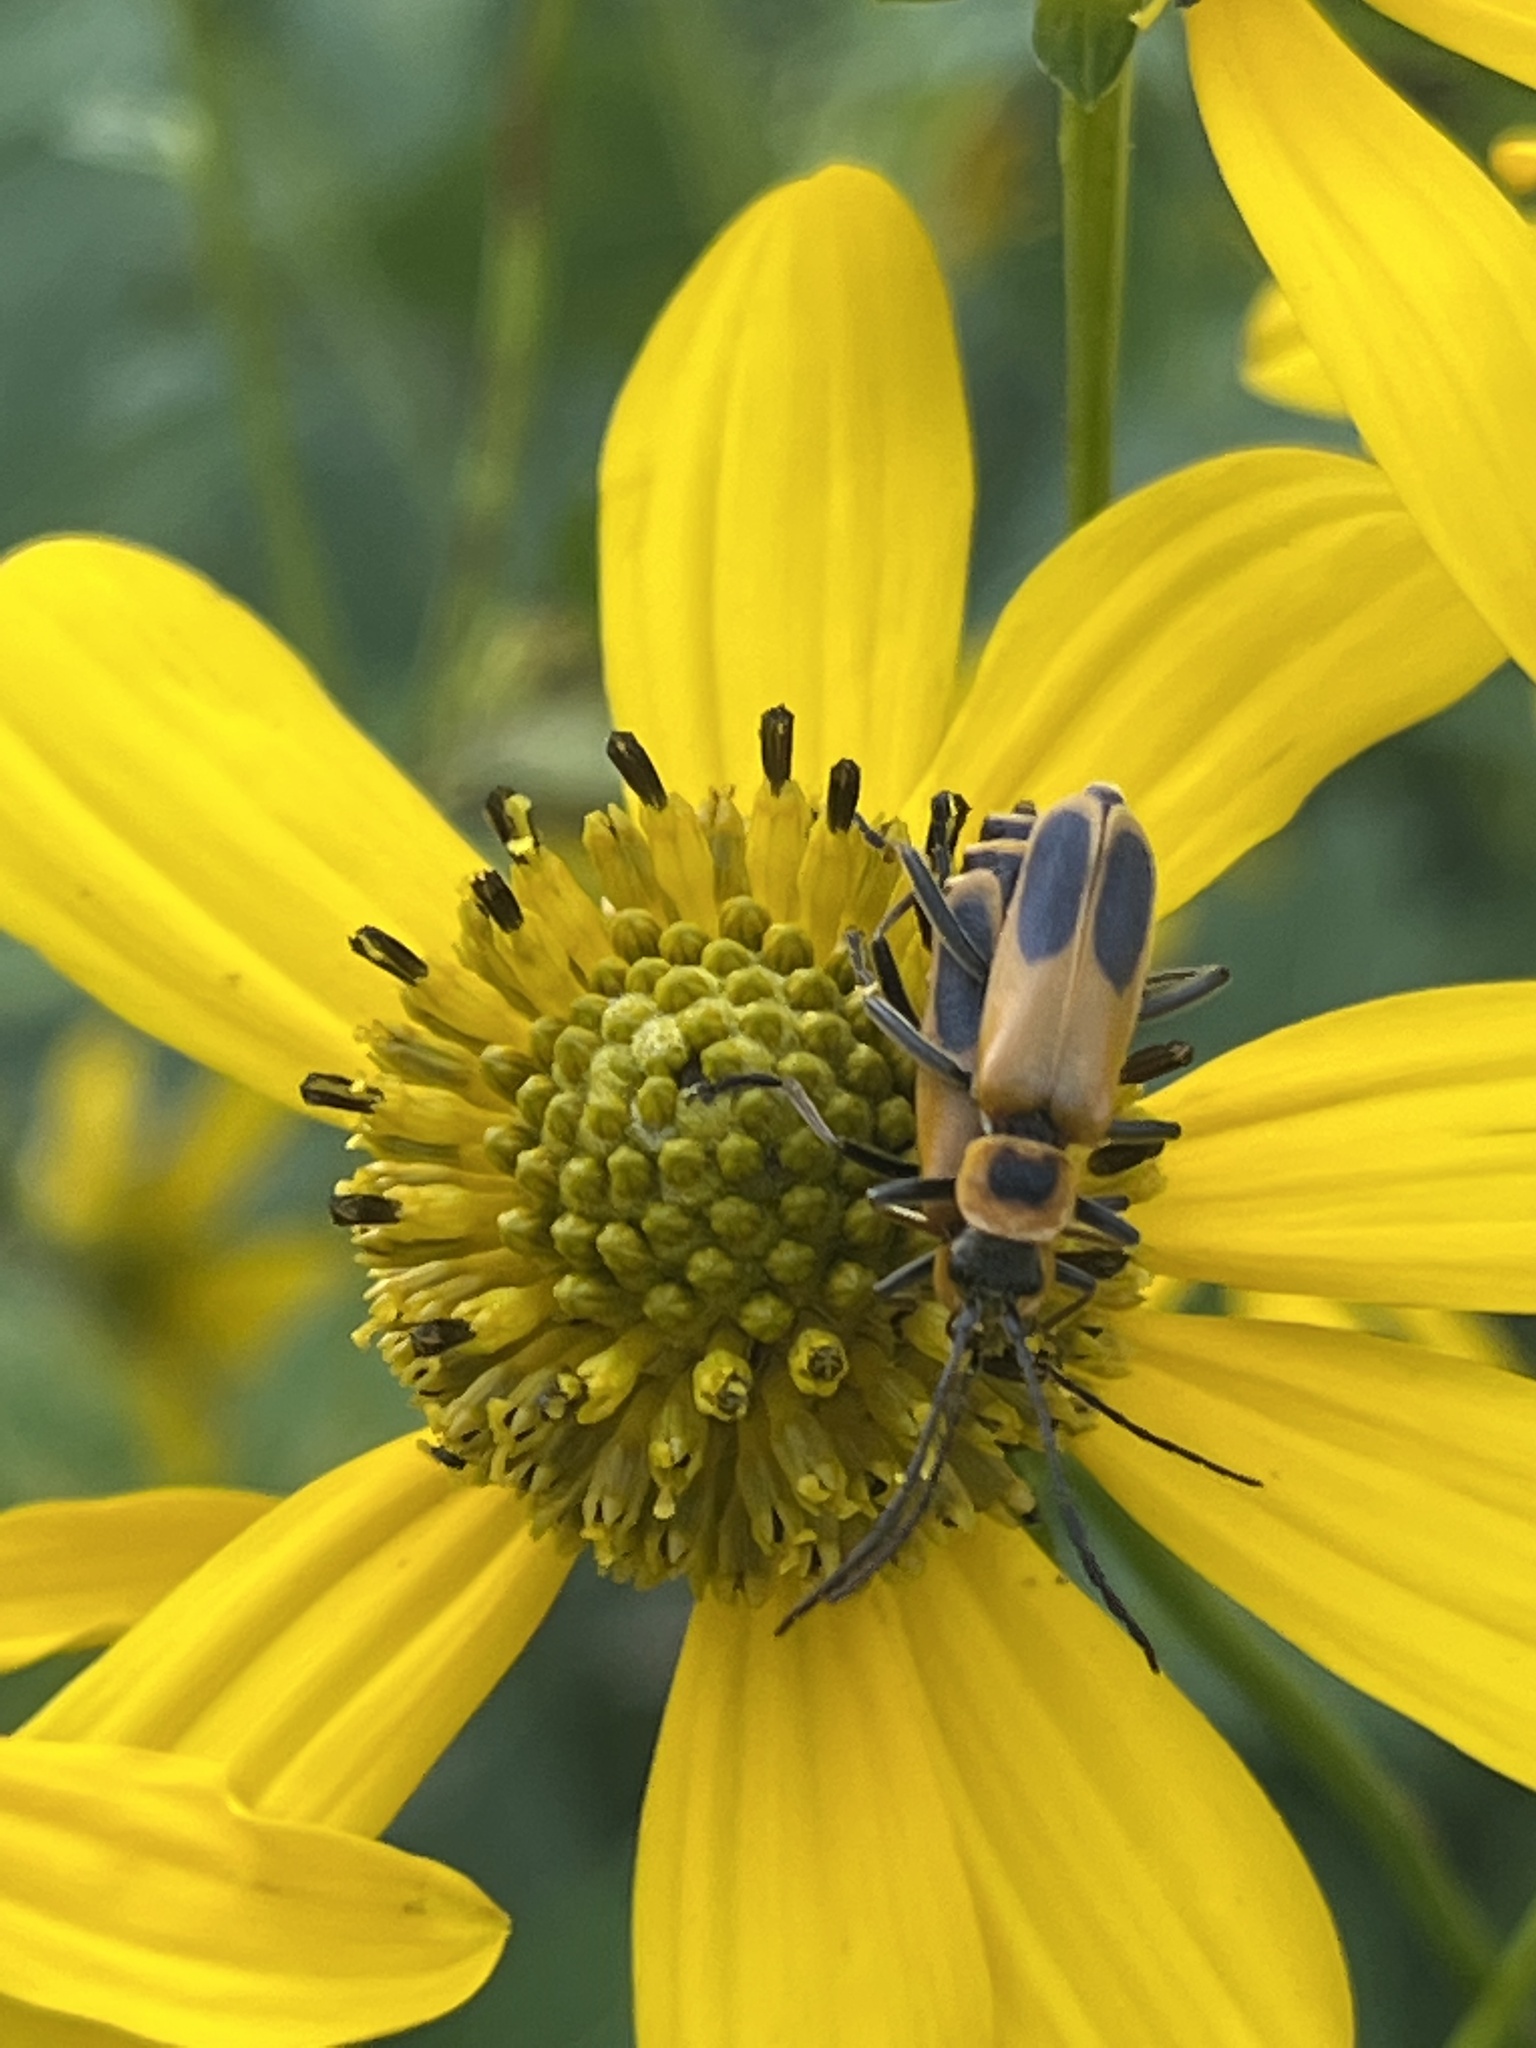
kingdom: Animalia
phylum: Arthropoda
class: Insecta
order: Coleoptera
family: Cantharidae
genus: Chauliognathus
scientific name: Chauliognathus pensylvanicus
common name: Goldenrod soldier beetle
